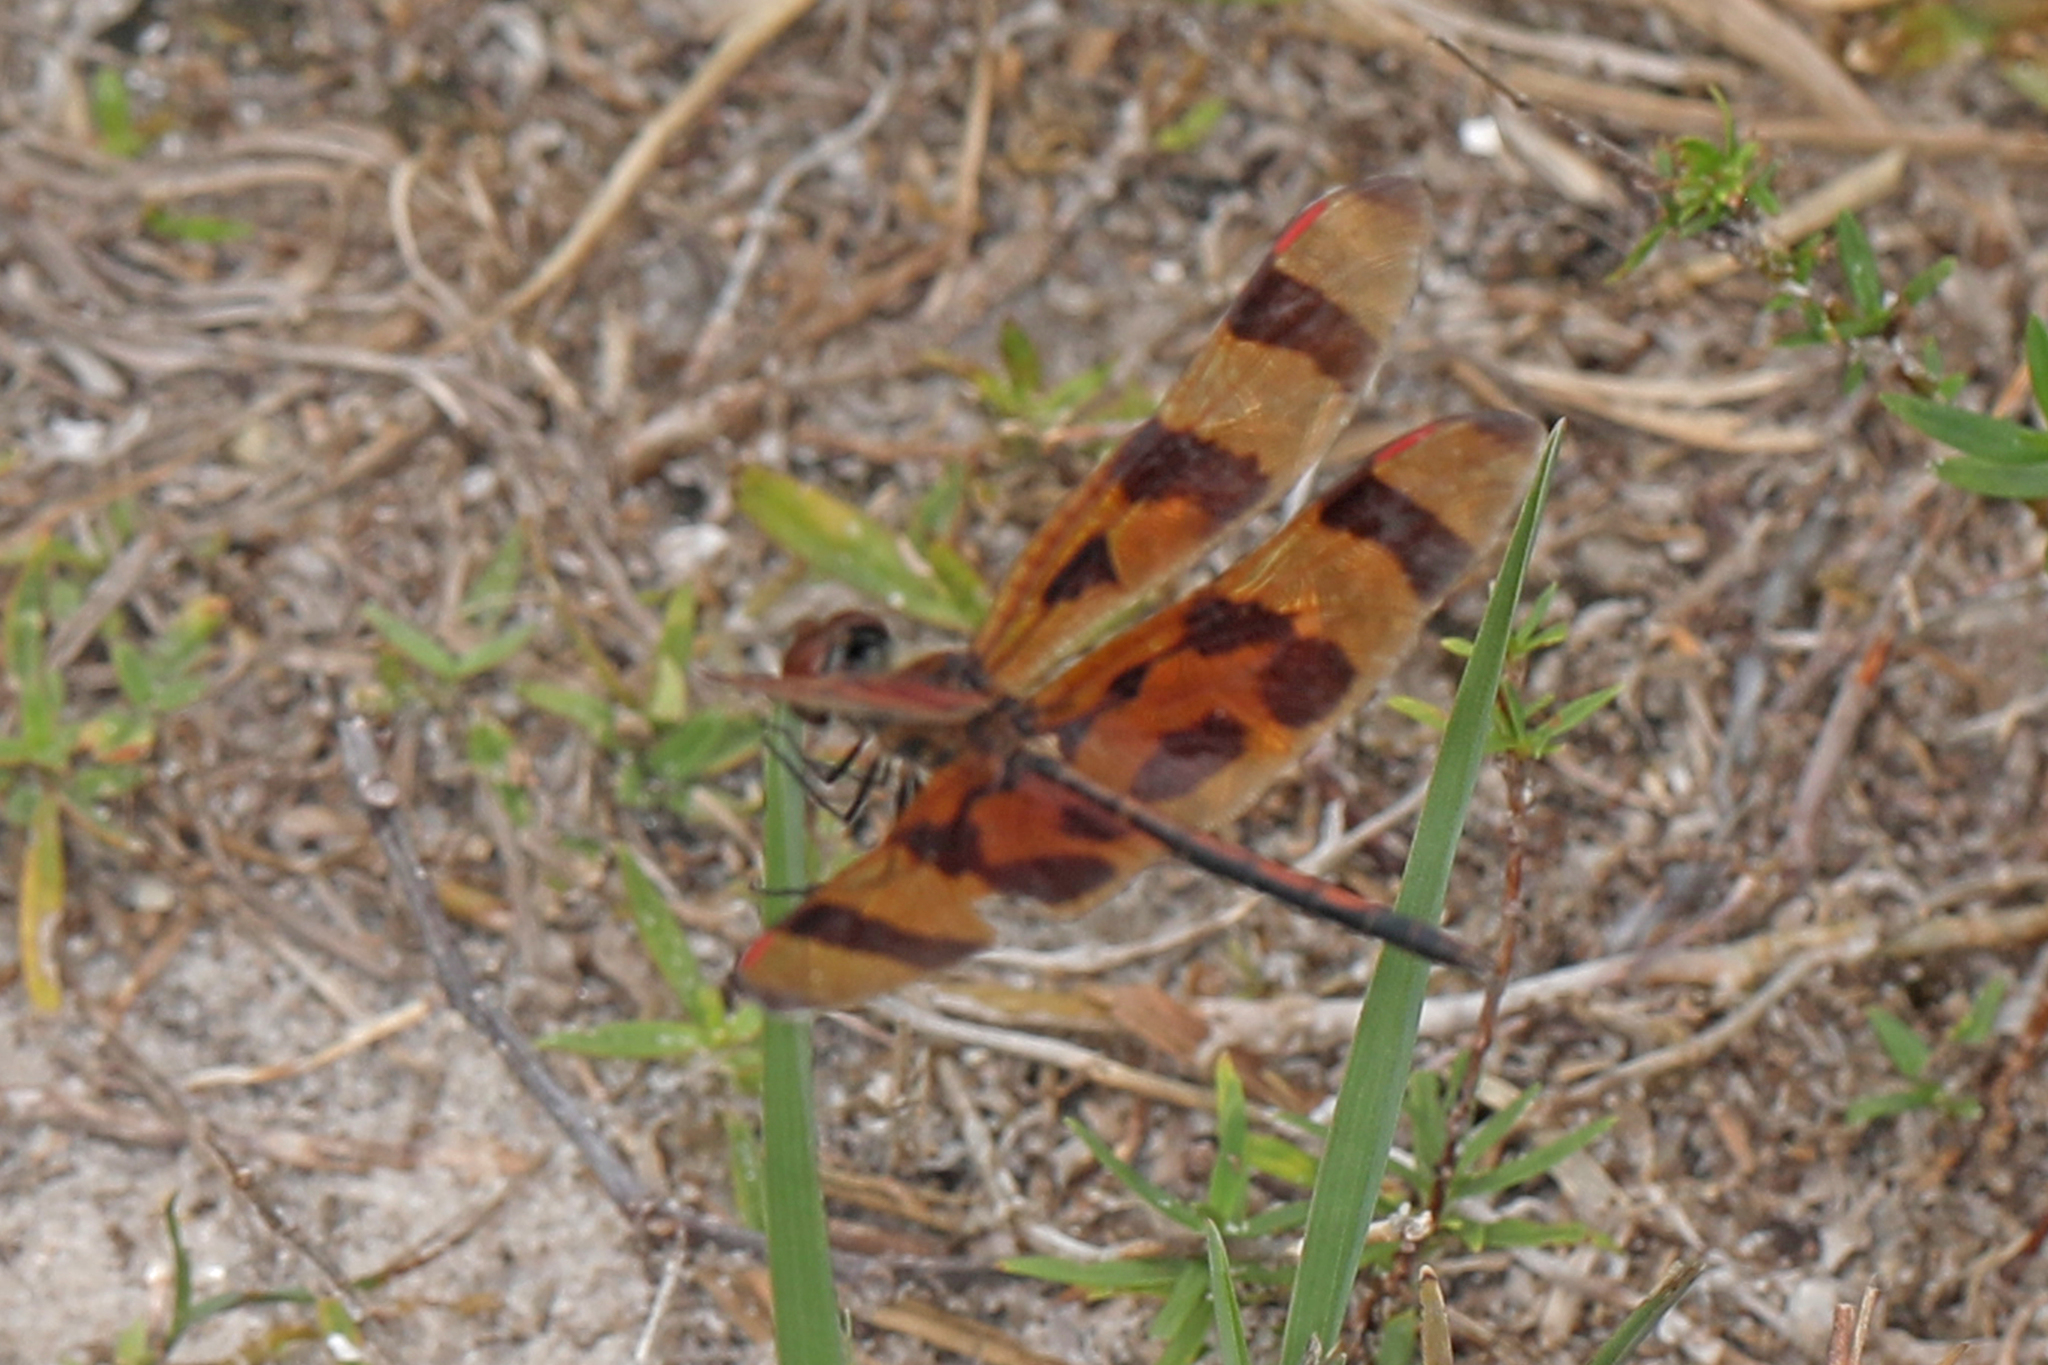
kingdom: Animalia
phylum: Arthropoda
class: Insecta
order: Odonata
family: Libellulidae
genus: Celithemis
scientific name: Celithemis eponina
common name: Halloween pennant
